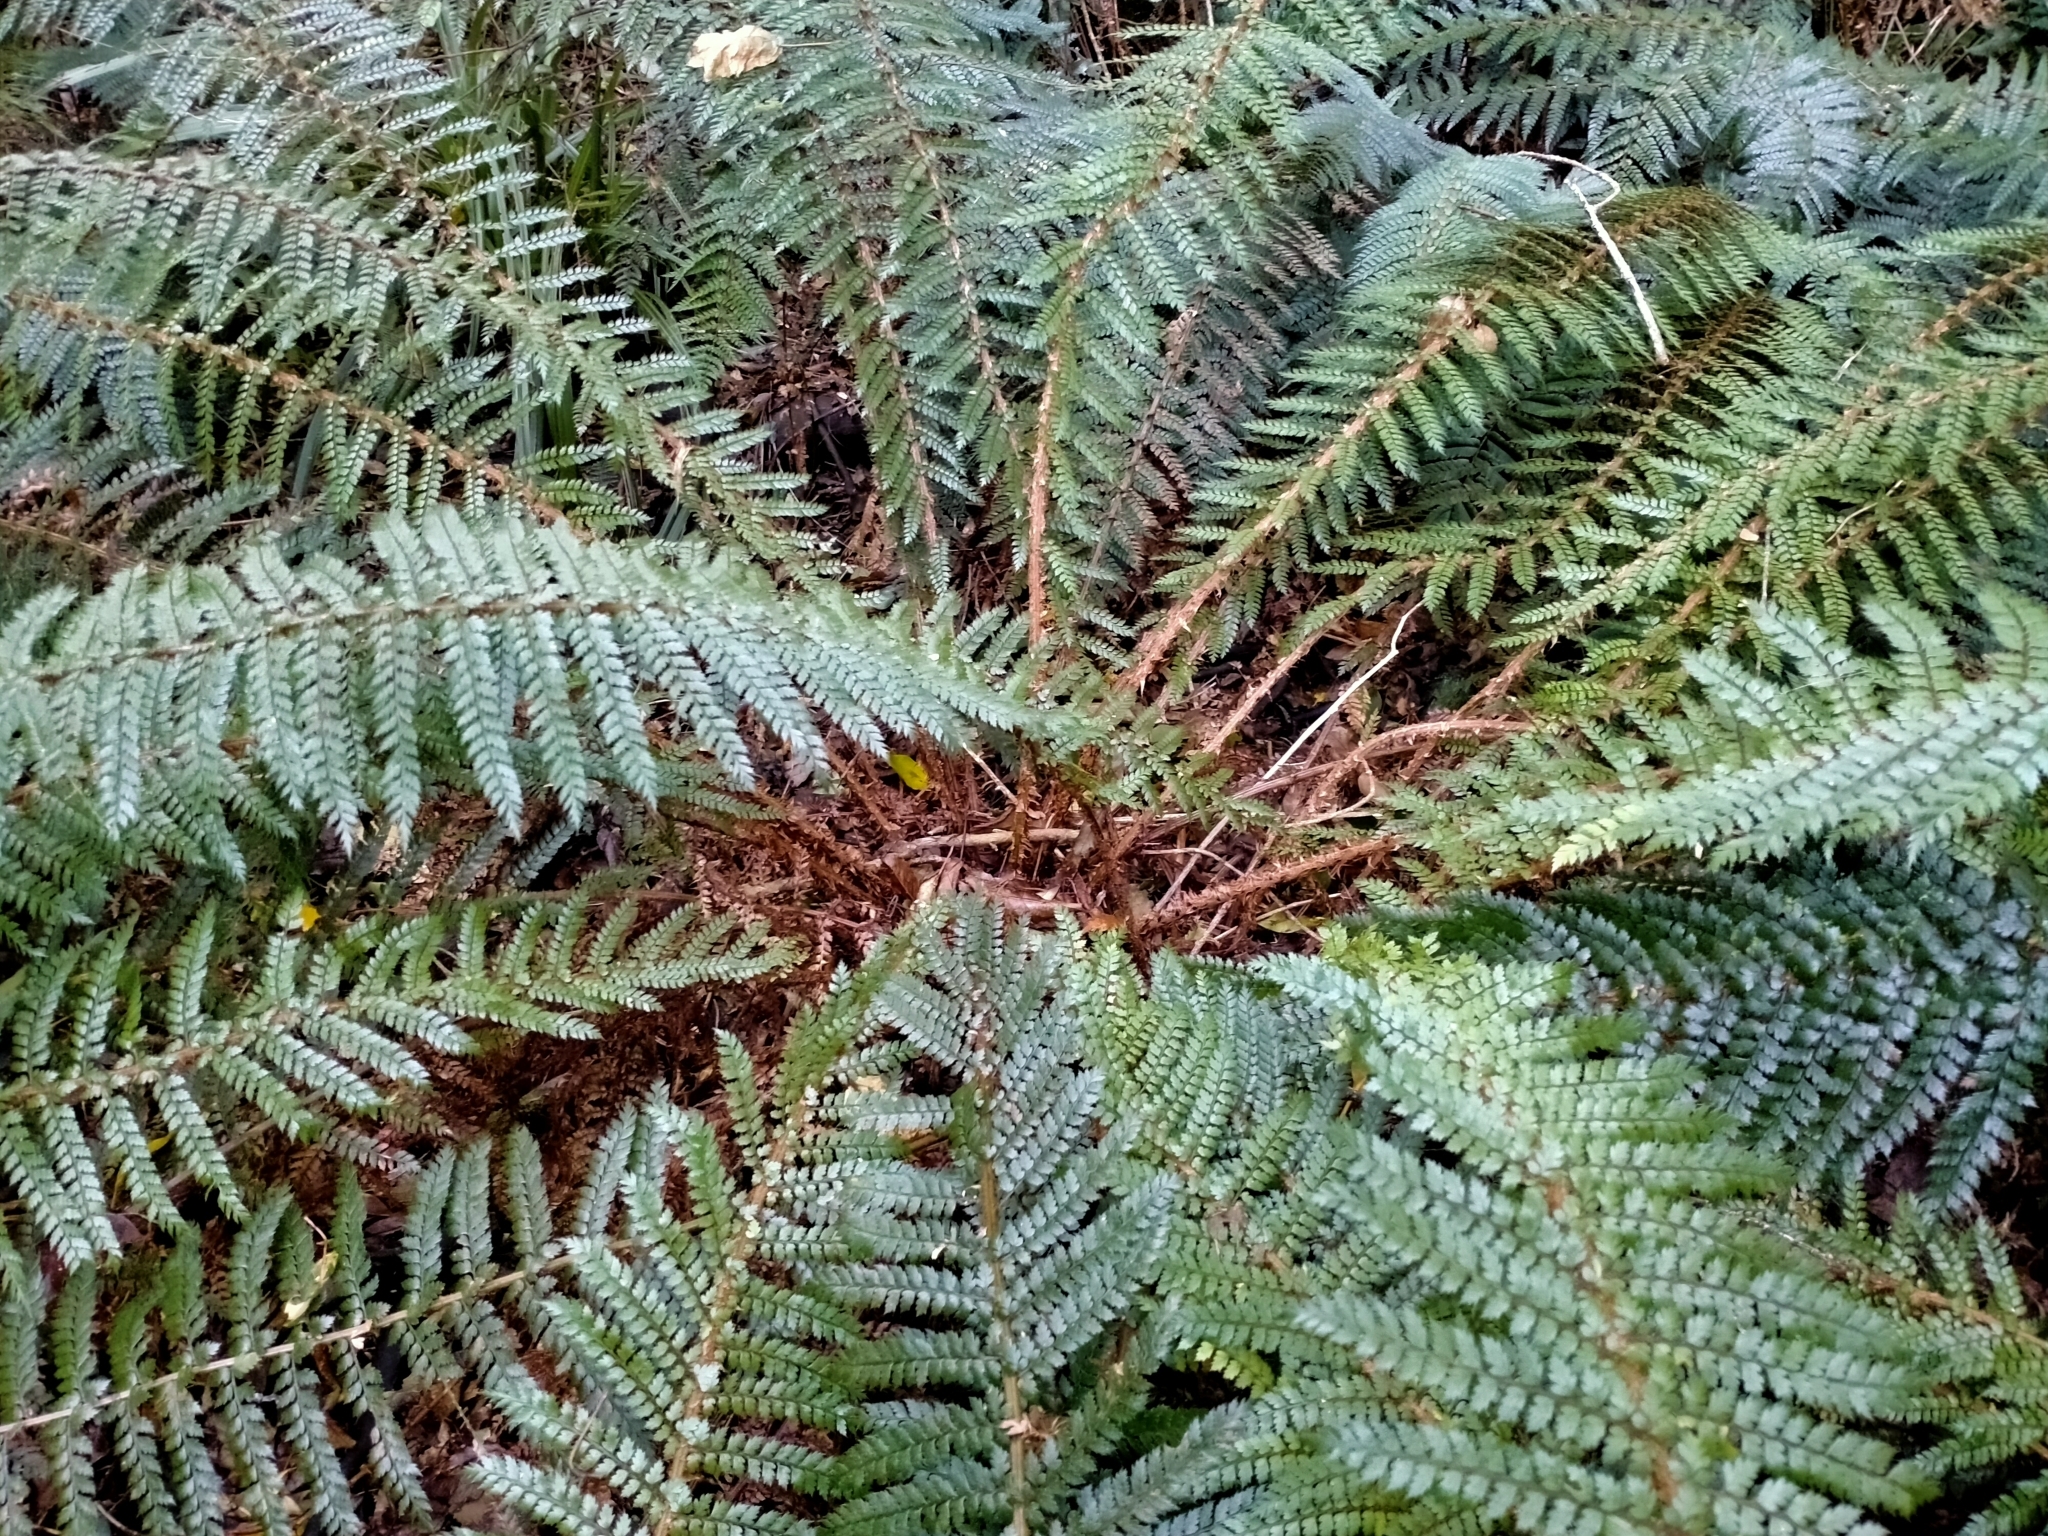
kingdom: Plantae
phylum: Tracheophyta
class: Polypodiopsida
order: Polypodiales
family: Dryopteridaceae
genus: Polystichum
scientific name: Polystichum vestitum
